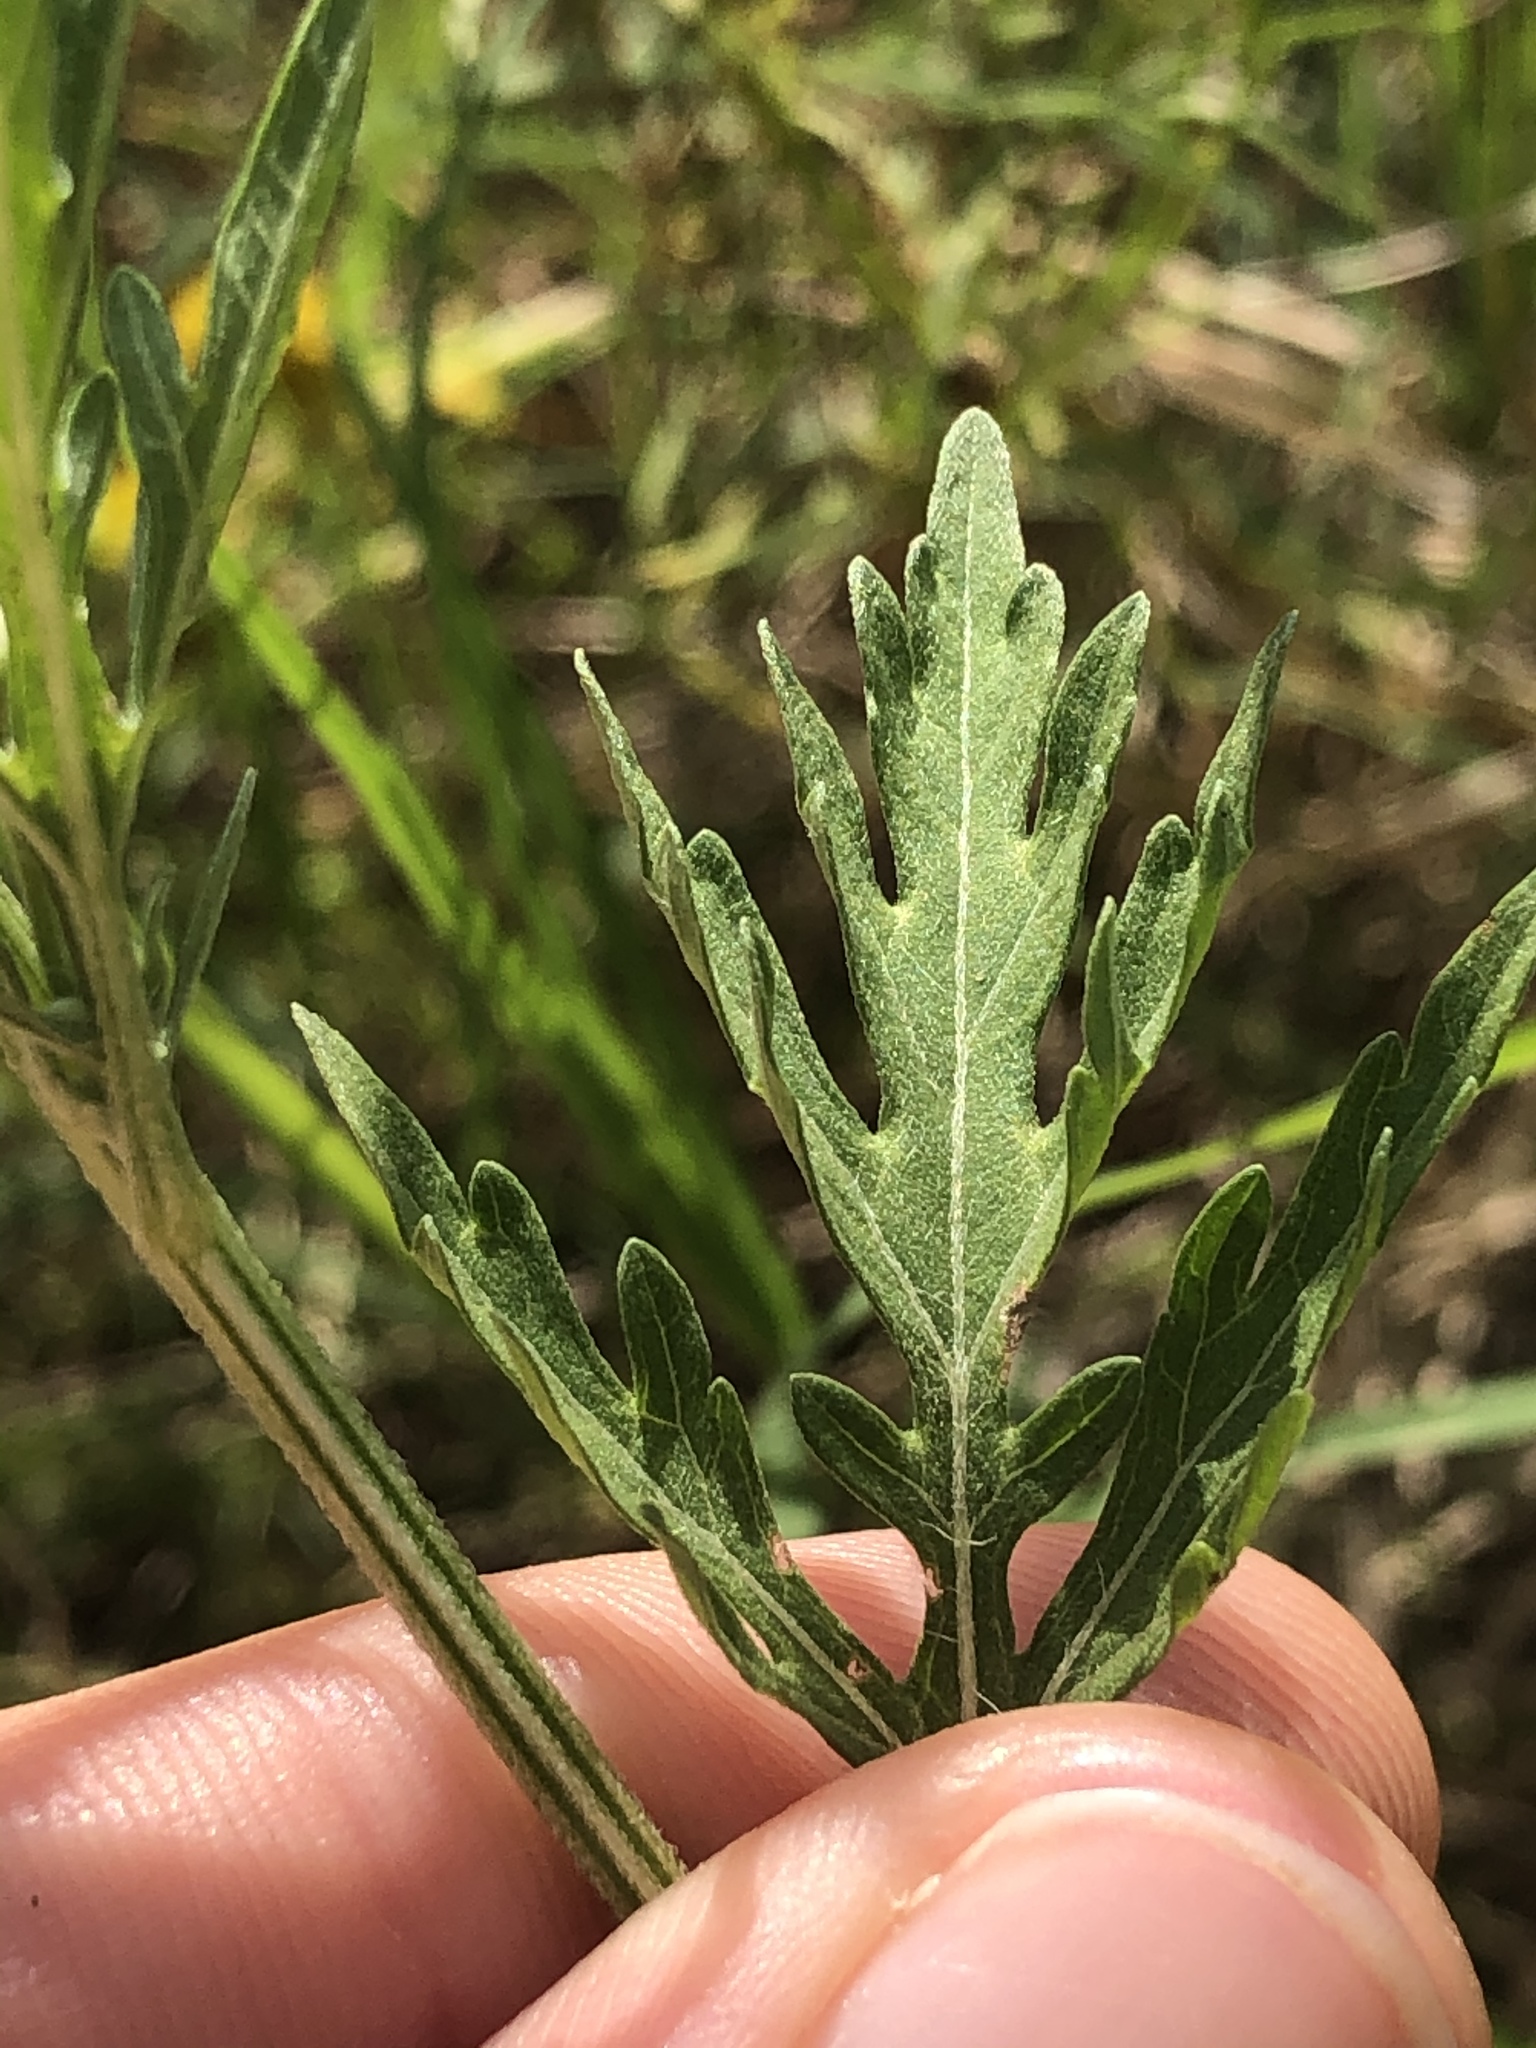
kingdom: Plantae
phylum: Tracheophyta
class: Magnoliopsida
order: Asterales
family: Asteraceae
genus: Parthenium
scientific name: Parthenium hysterophorus
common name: Santa maria feverfew
